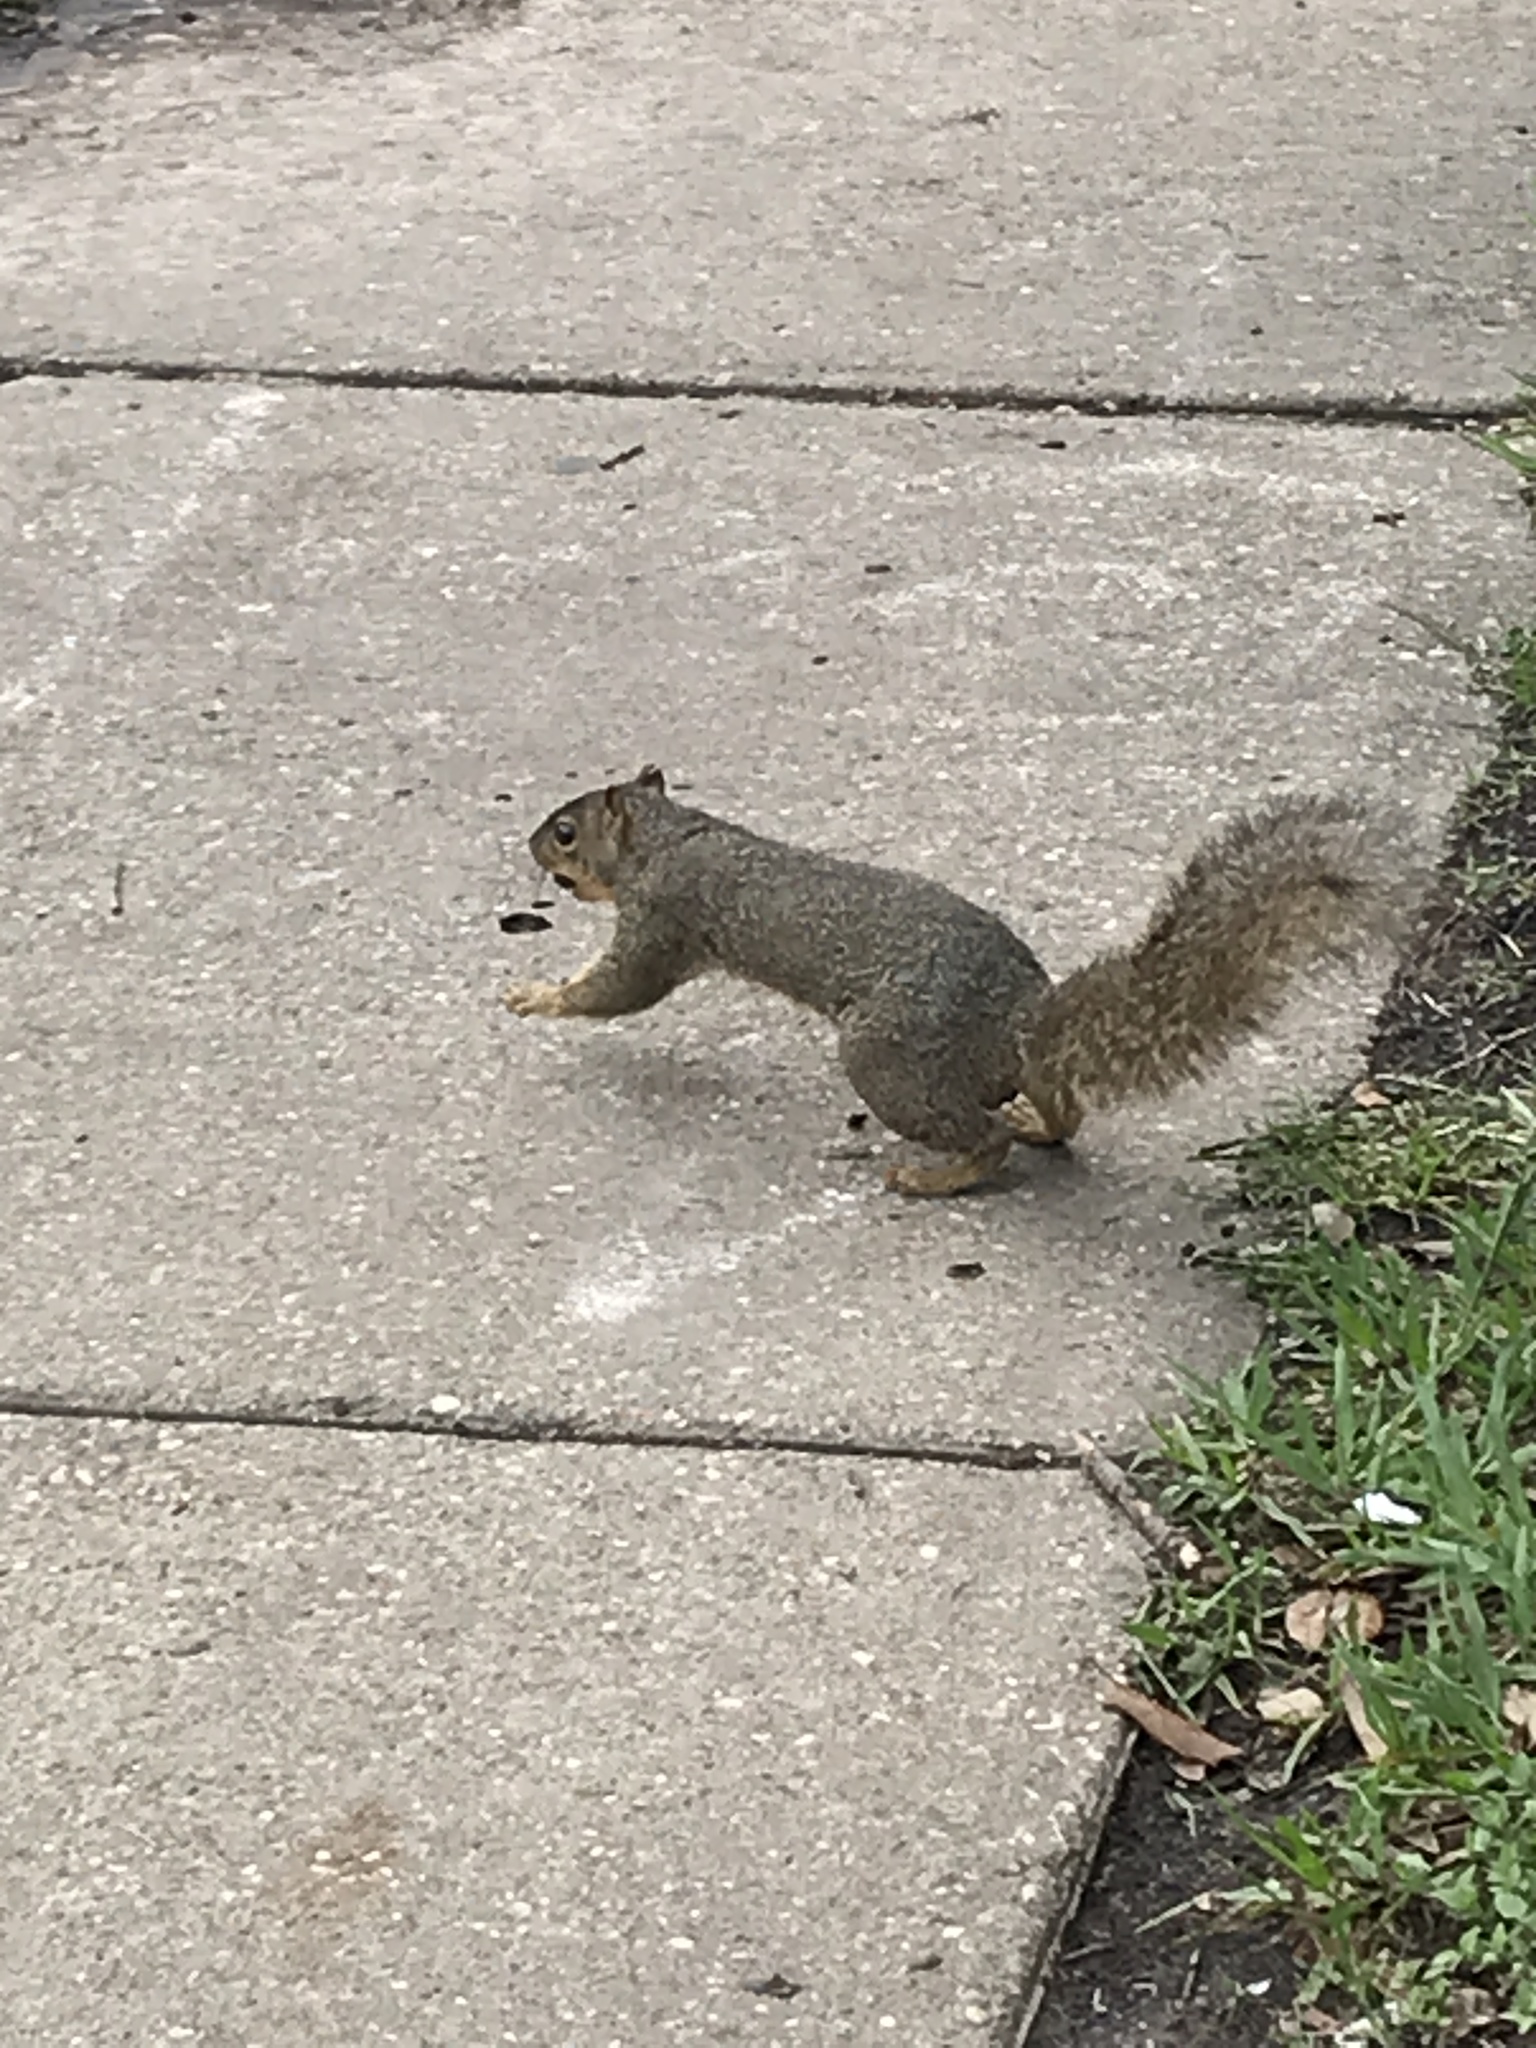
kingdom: Animalia
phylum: Chordata
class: Mammalia
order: Rodentia
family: Sciuridae
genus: Sciurus
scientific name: Sciurus niger
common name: Fox squirrel
